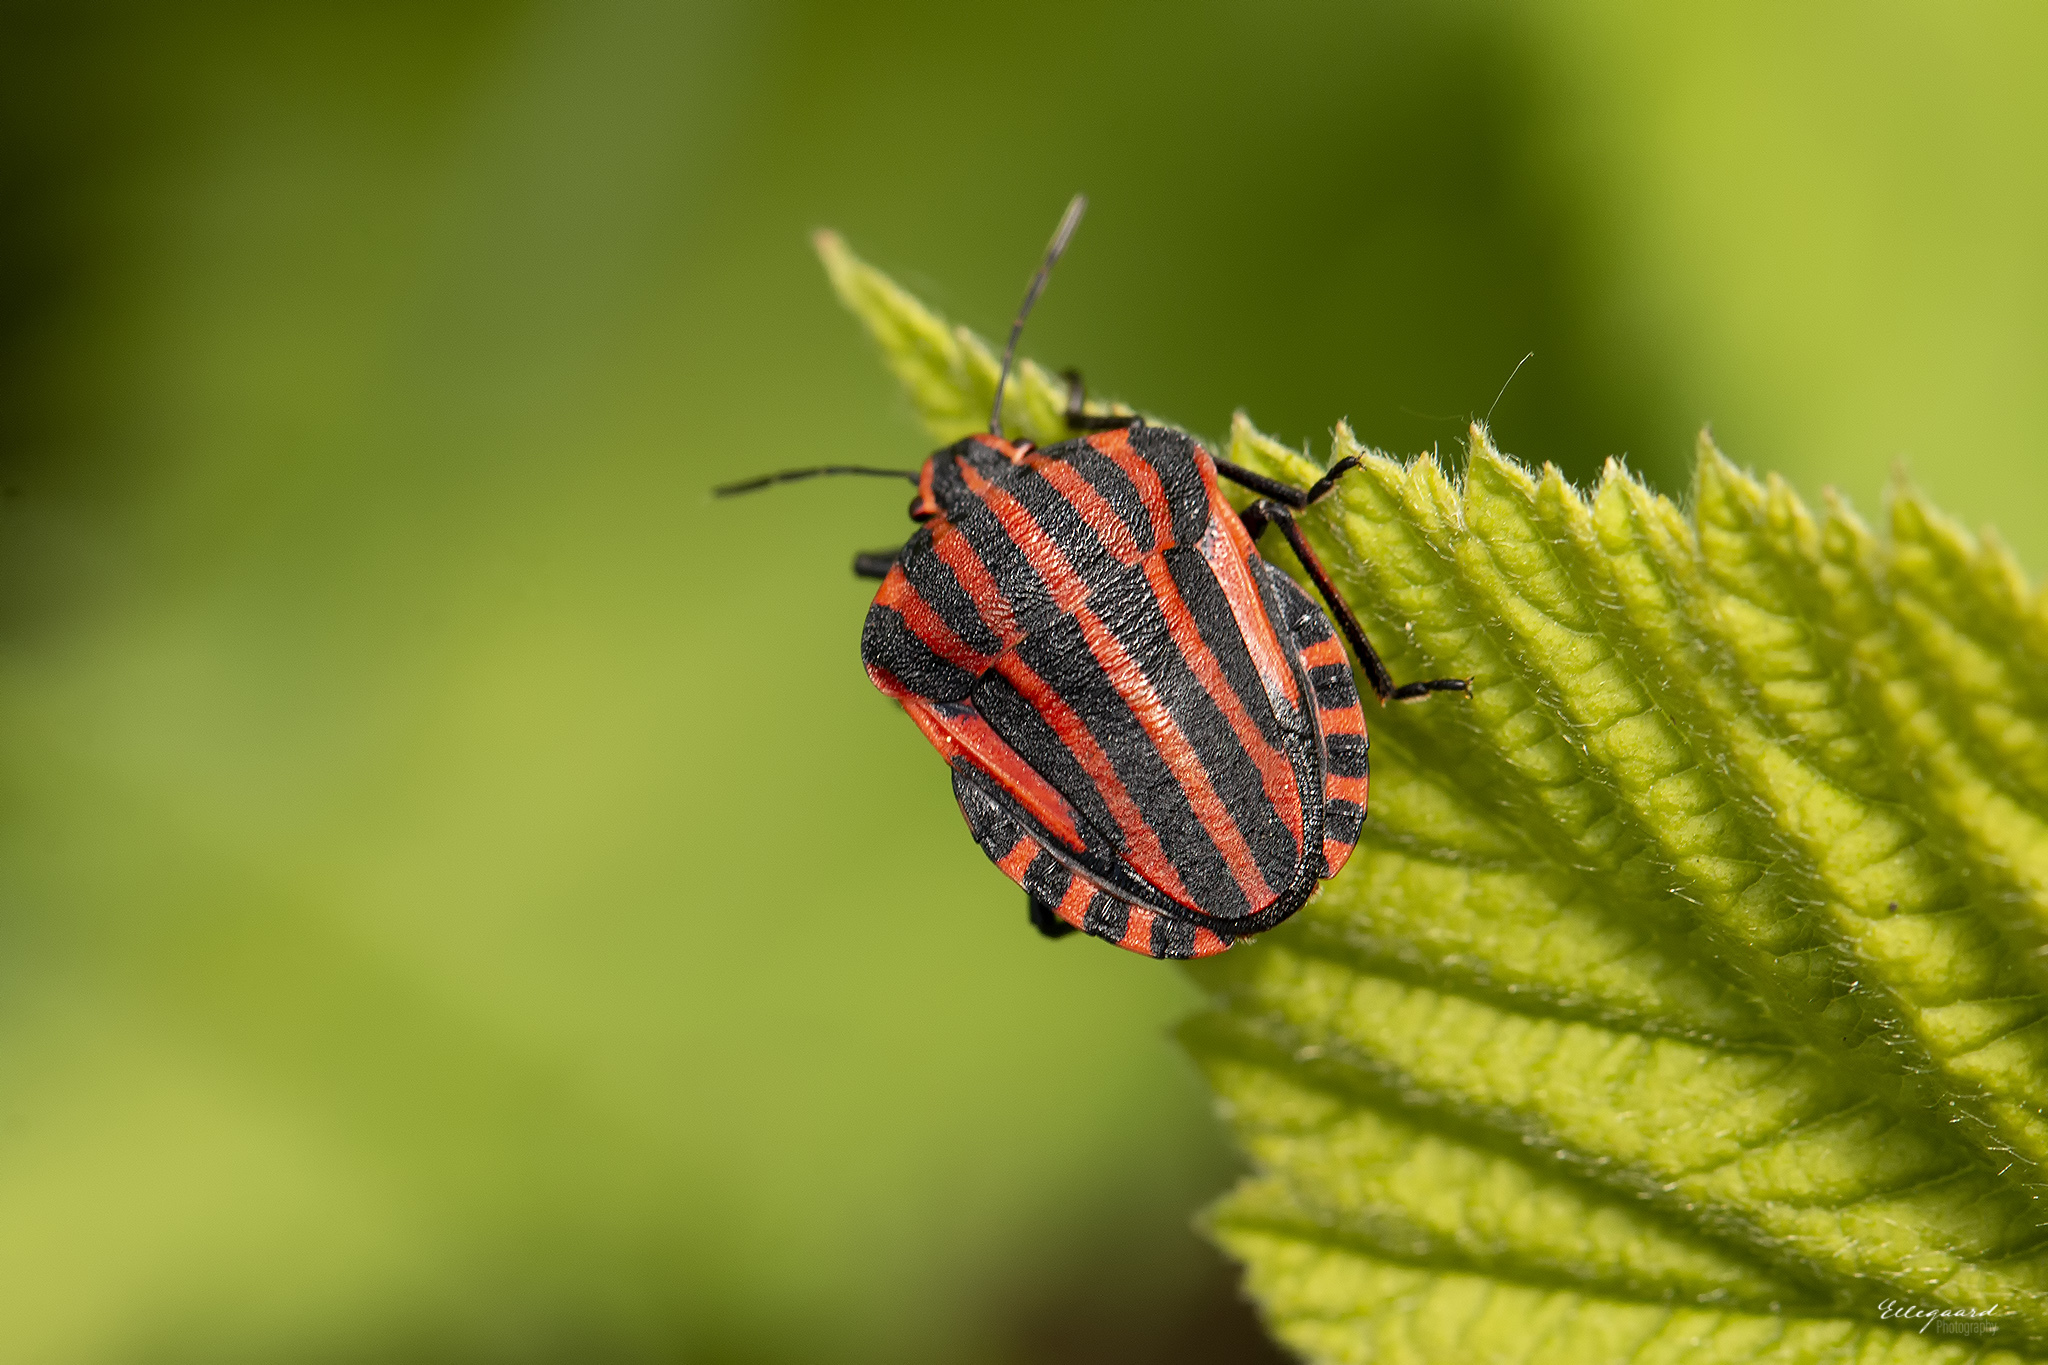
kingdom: Animalia
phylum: Arthropoda
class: Insecta
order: Hemiptera
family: Pentatomidae
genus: Graphosoma
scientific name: Graphosoma italicum
